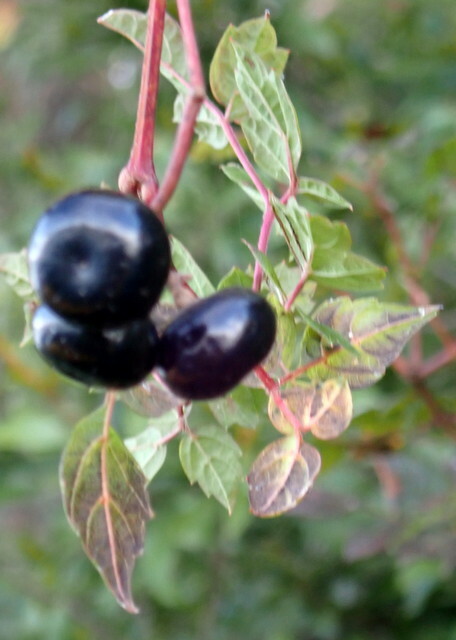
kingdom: Plantae
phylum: Tracheophyta
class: Magnoliopsida
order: Vitales
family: Vitaceae
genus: Nekemias
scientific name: Nekemias arborea
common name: Peppervine
